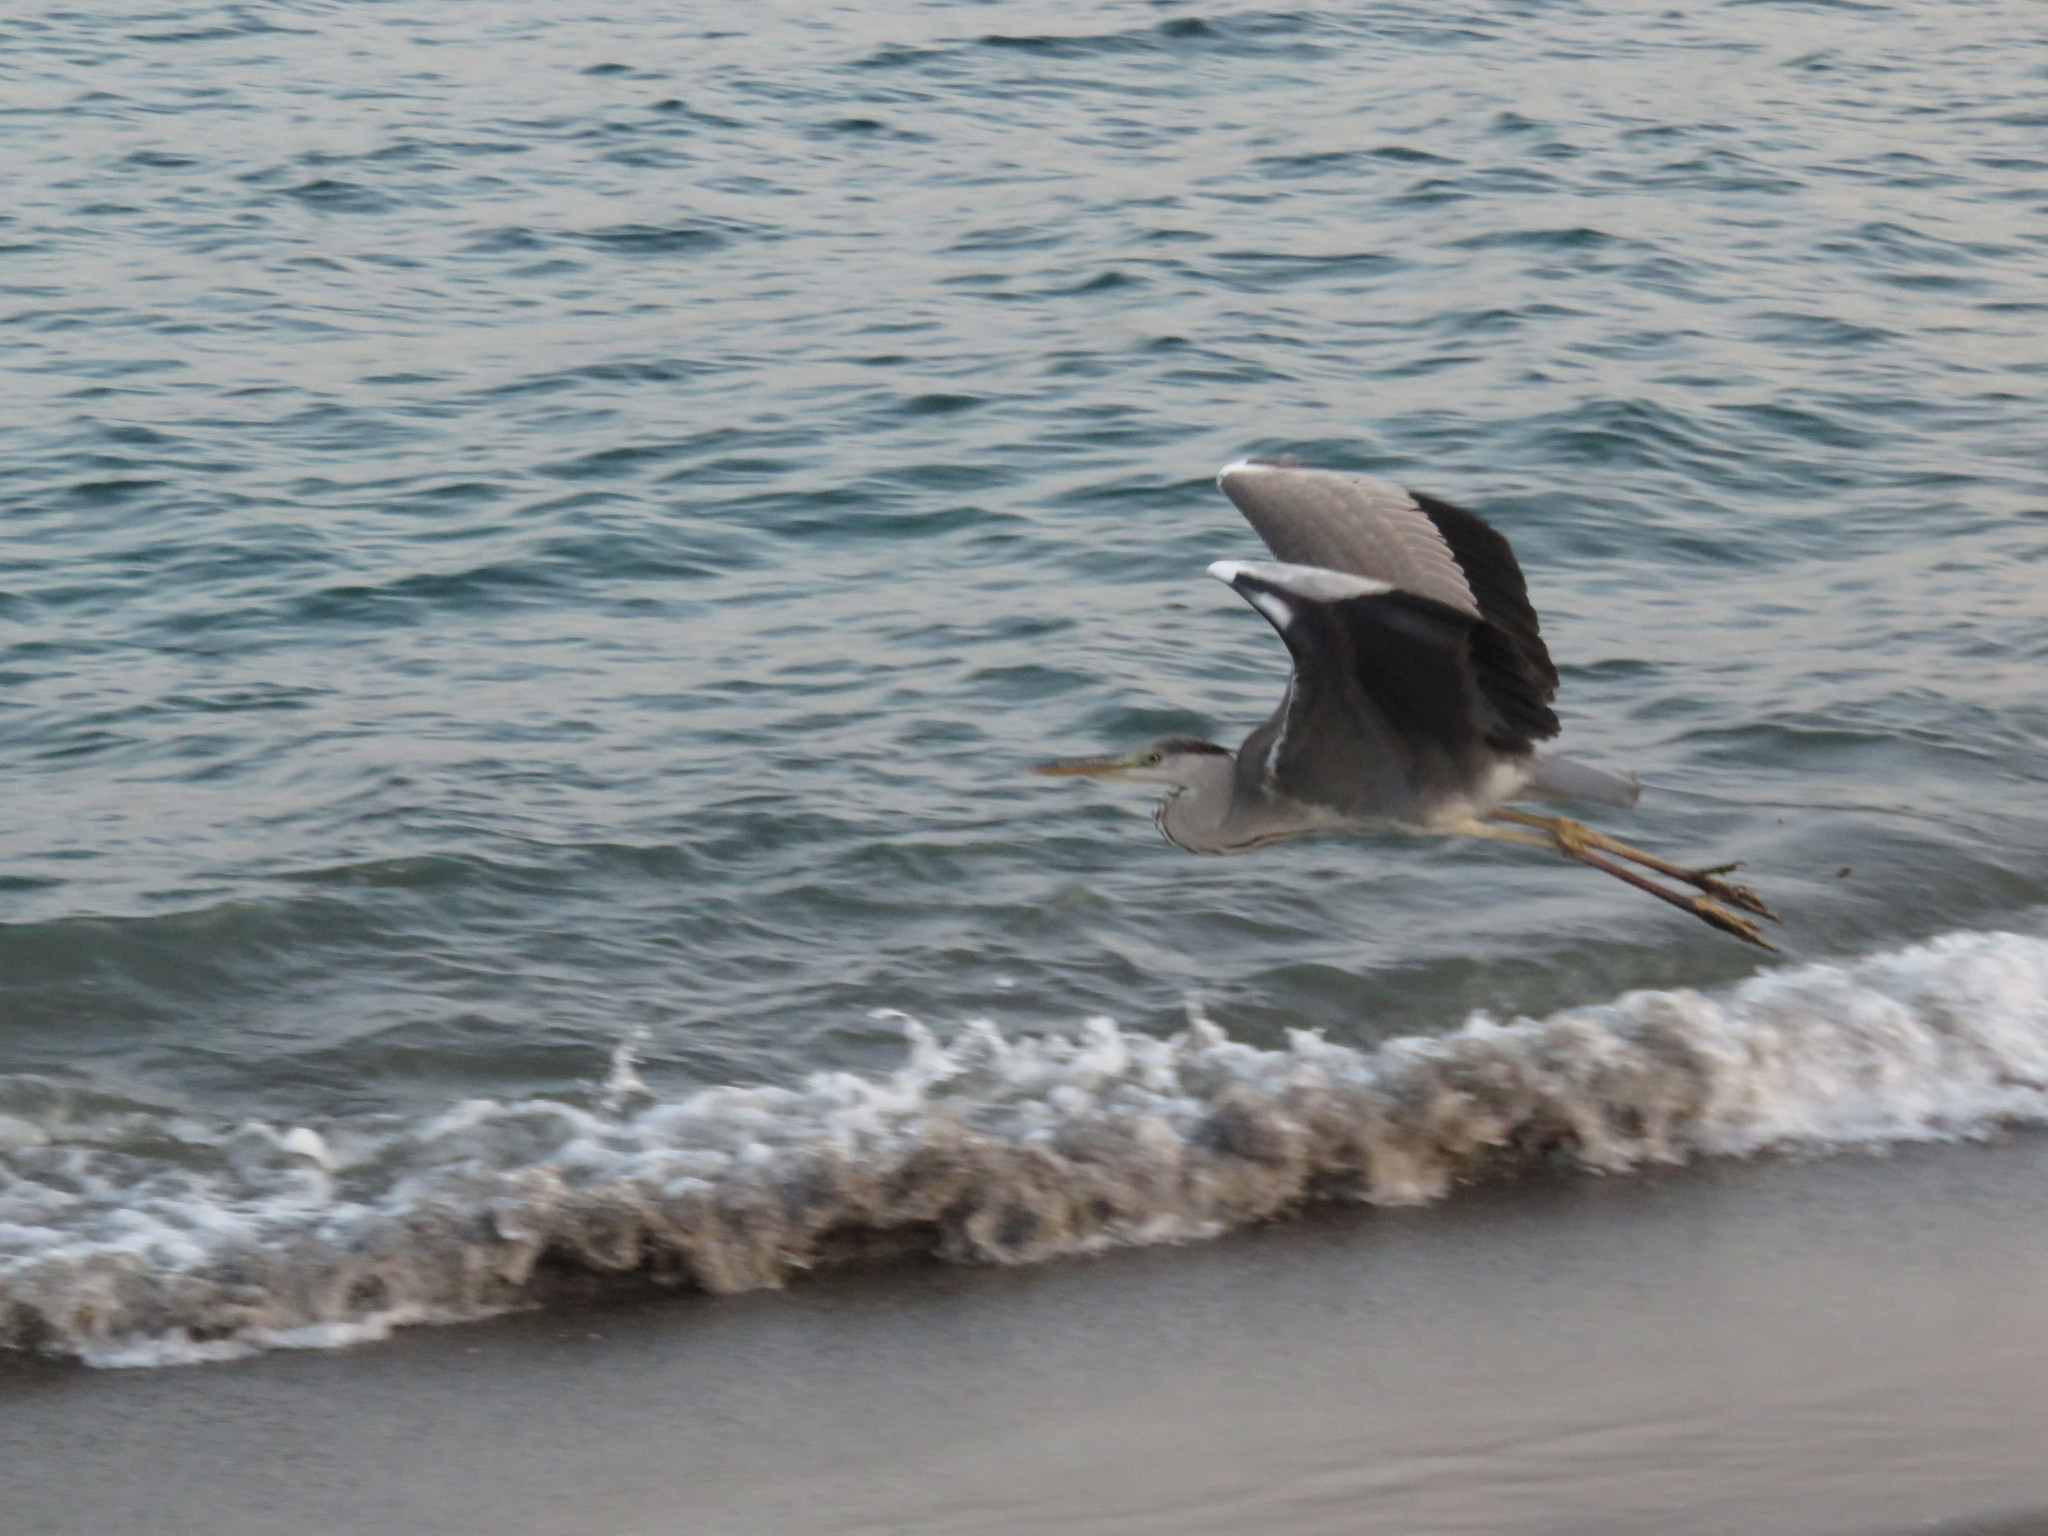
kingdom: Animalia
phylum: Chordata
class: Aves
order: Pelecaniformes
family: Ardeidae
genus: Ardea
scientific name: Ardea cinerea
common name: Grey heron
